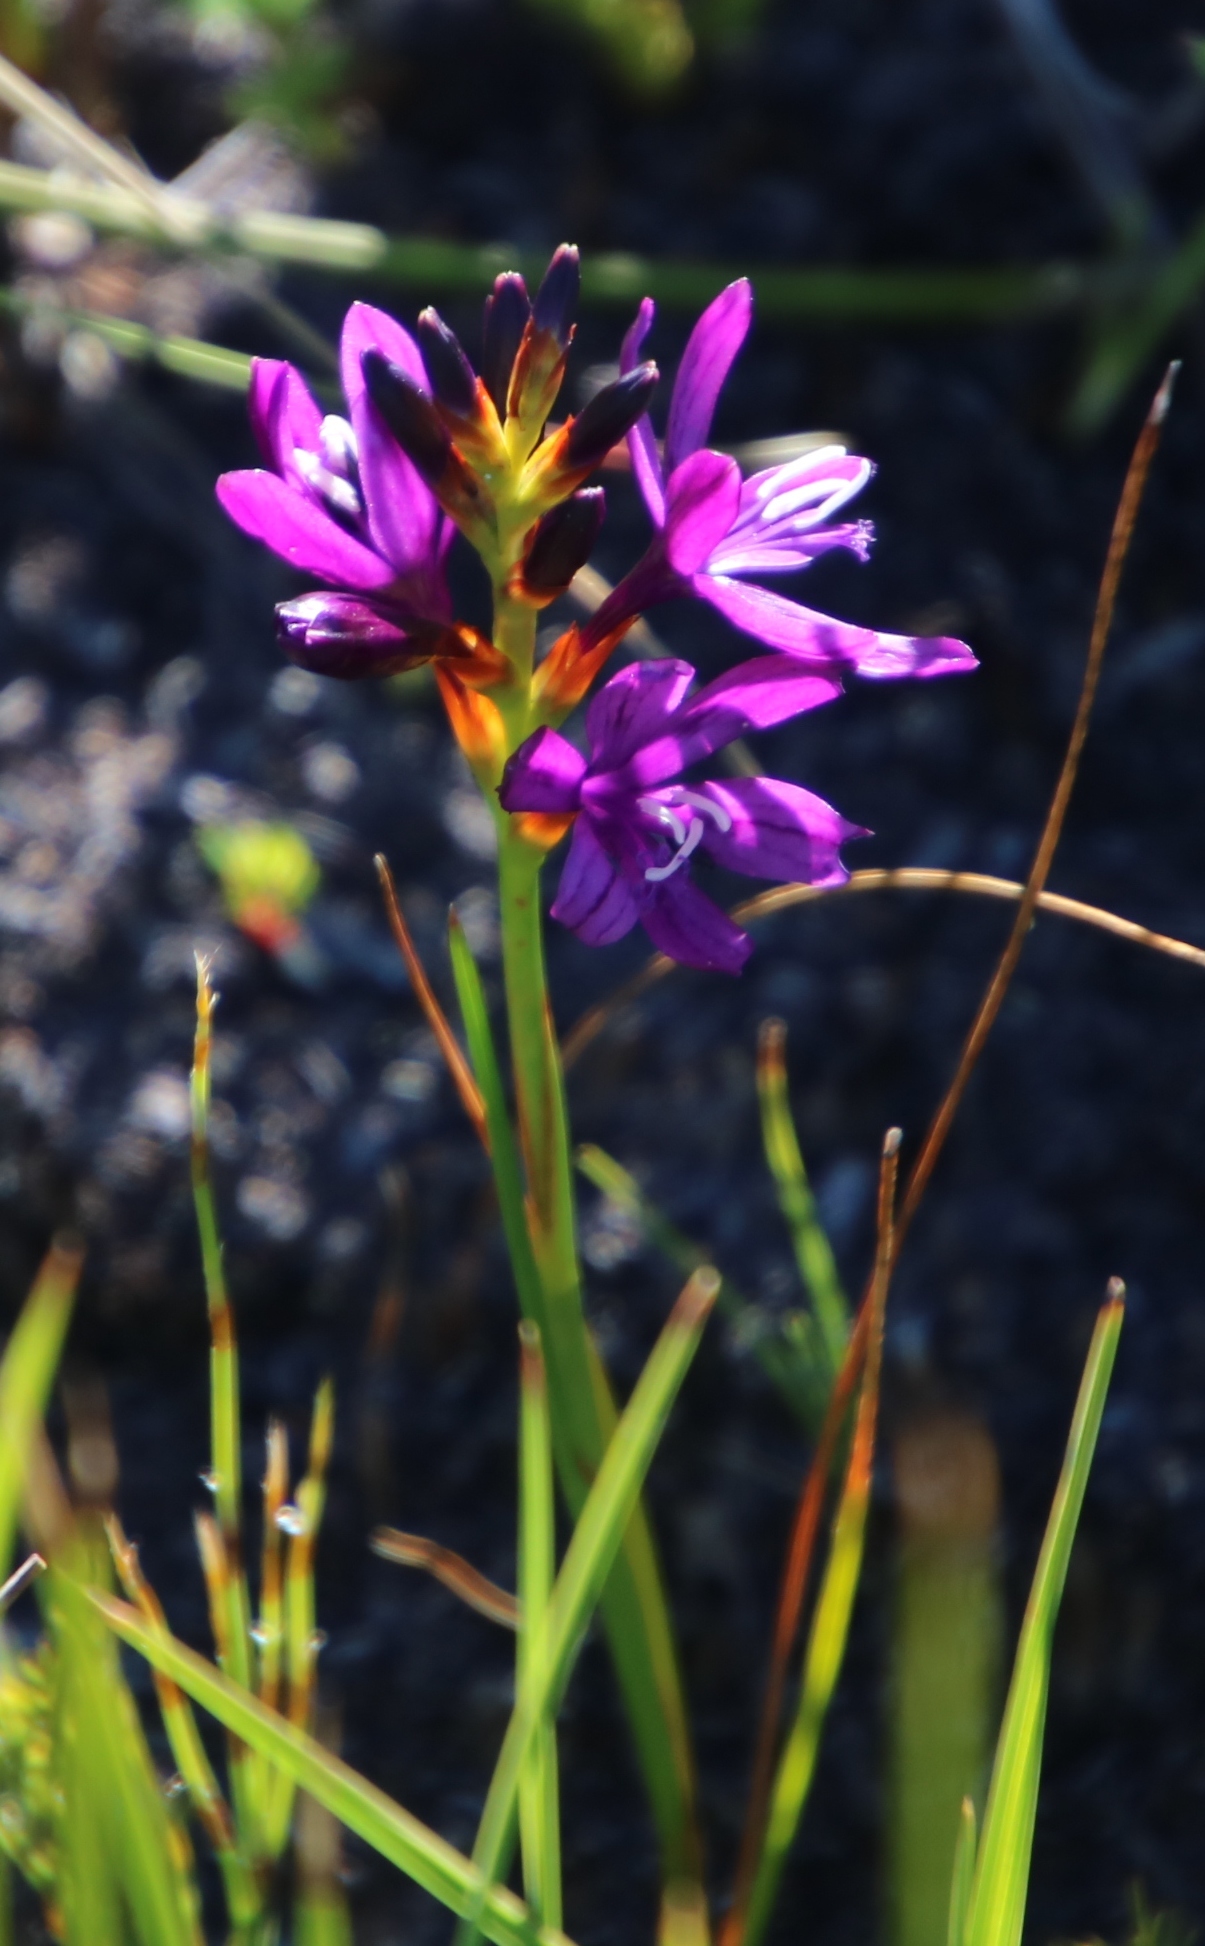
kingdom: Plantae
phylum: Tracheophyta
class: Liliopsida
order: Asparagales
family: Iridaceae
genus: Thereianthus
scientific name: Thereianthus bracteolatus
